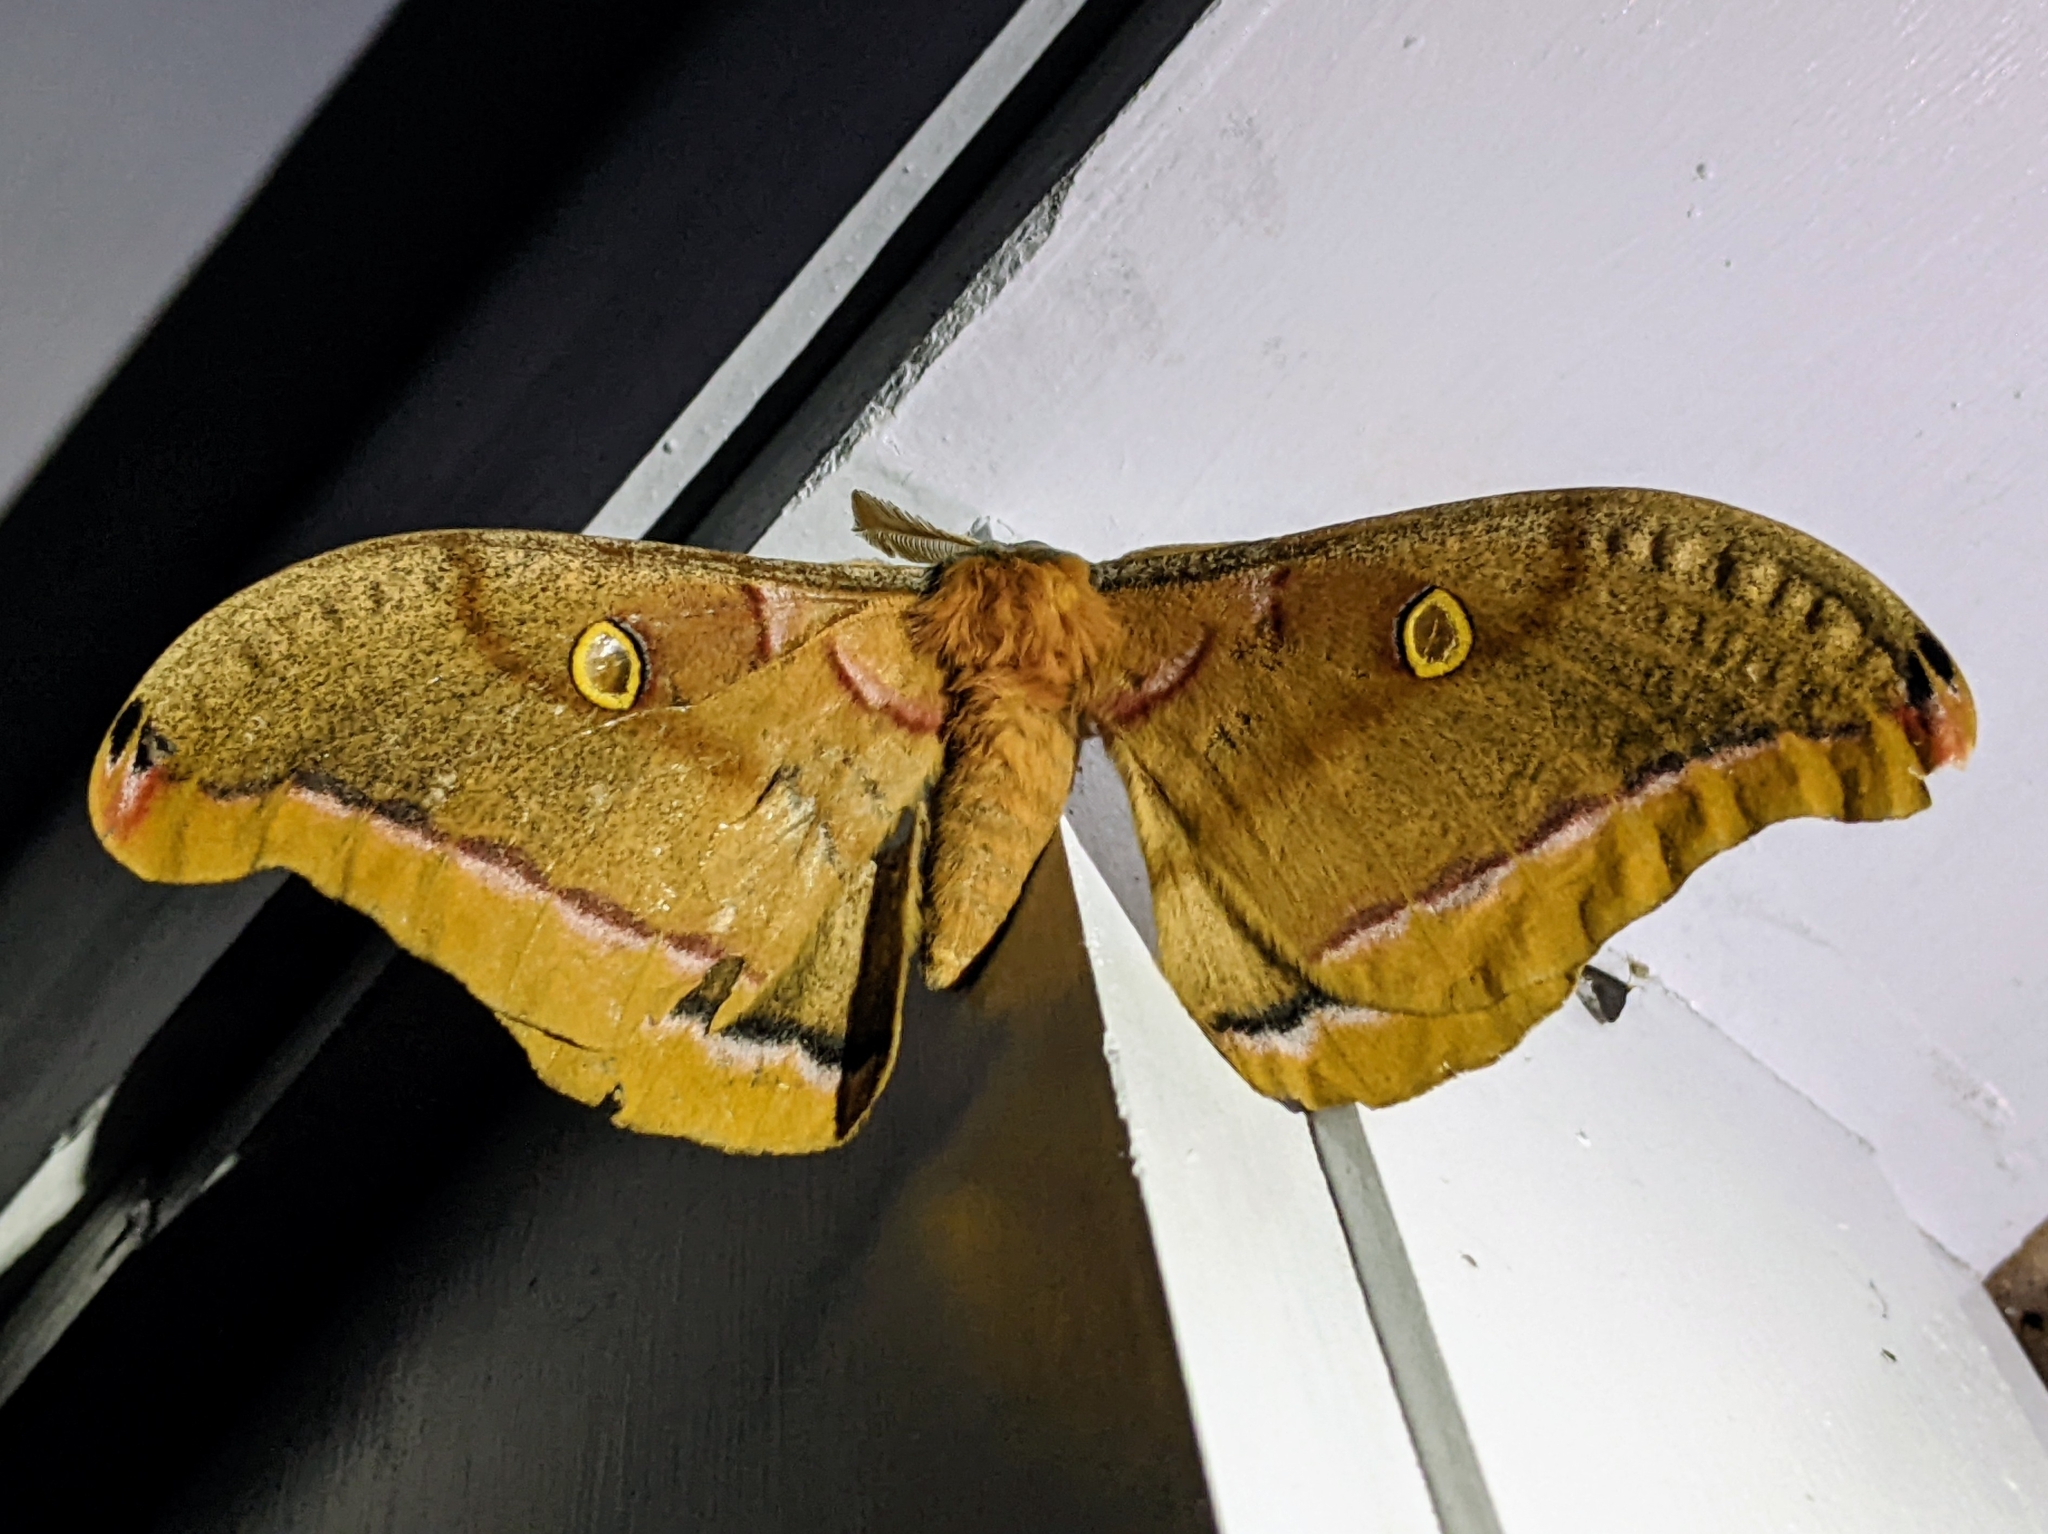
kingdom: Animalia
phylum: Arthropoda
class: Insecta
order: Lepidoptera
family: Saturniidae
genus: Antheraea
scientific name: Antheraea polyphemus
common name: Polyphemus moth
